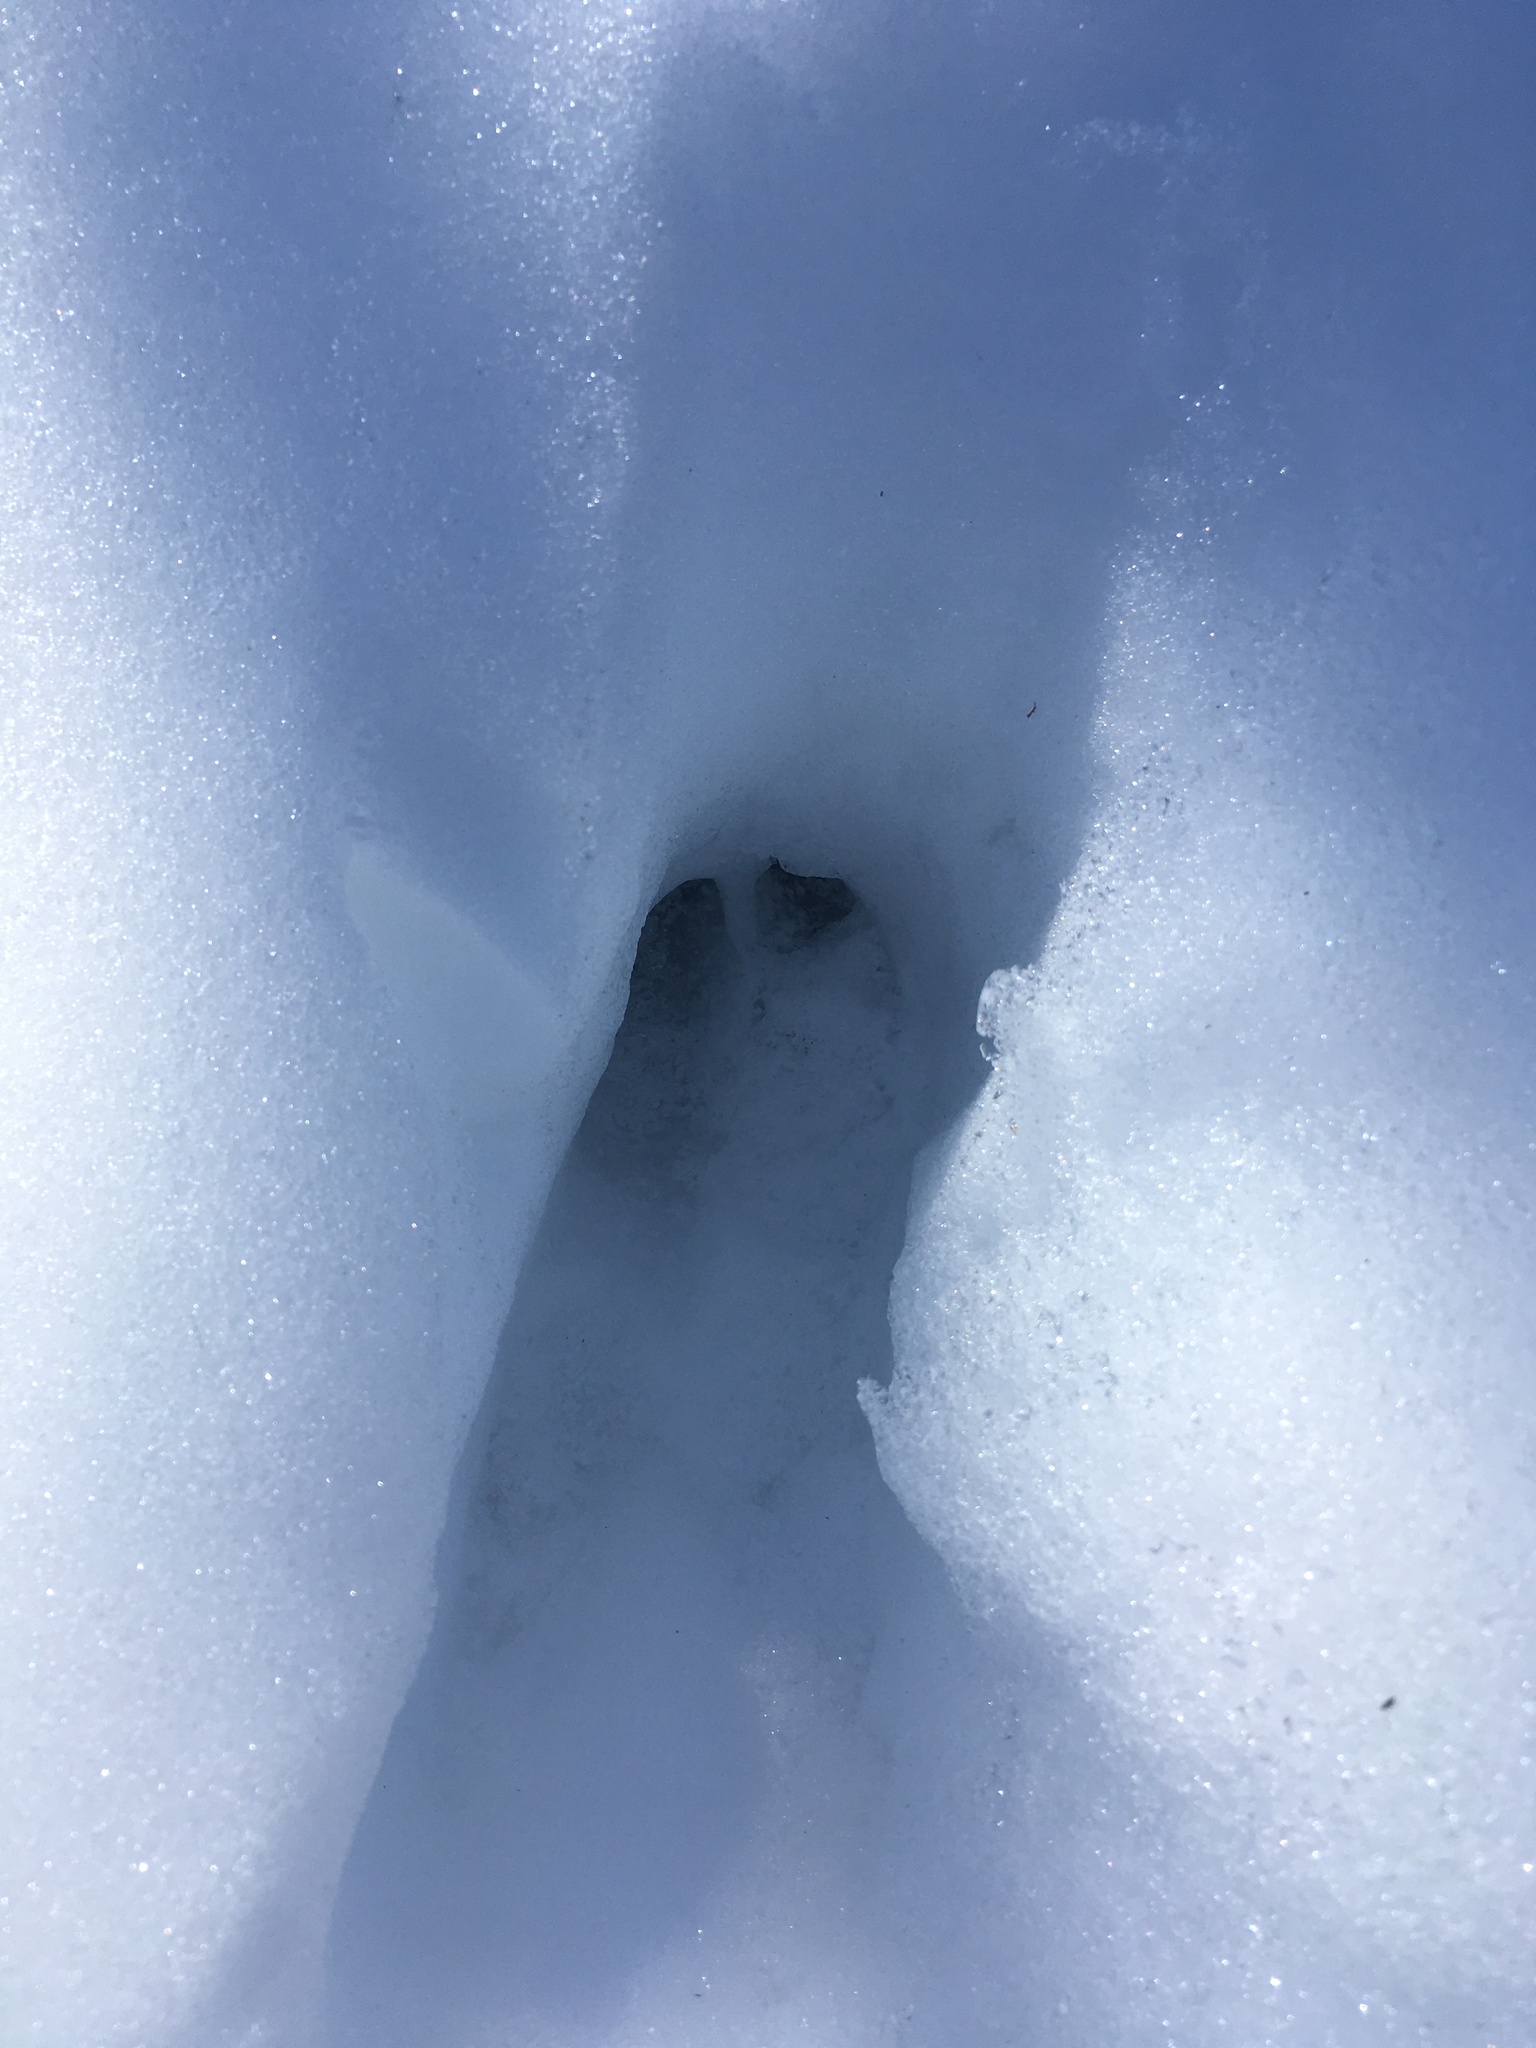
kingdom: Animalia
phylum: Chordata
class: Mammalia
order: Artiodactyla
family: Cervidae
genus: Odocoileus
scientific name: Odocoileus virginianus
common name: White-tailed deer
